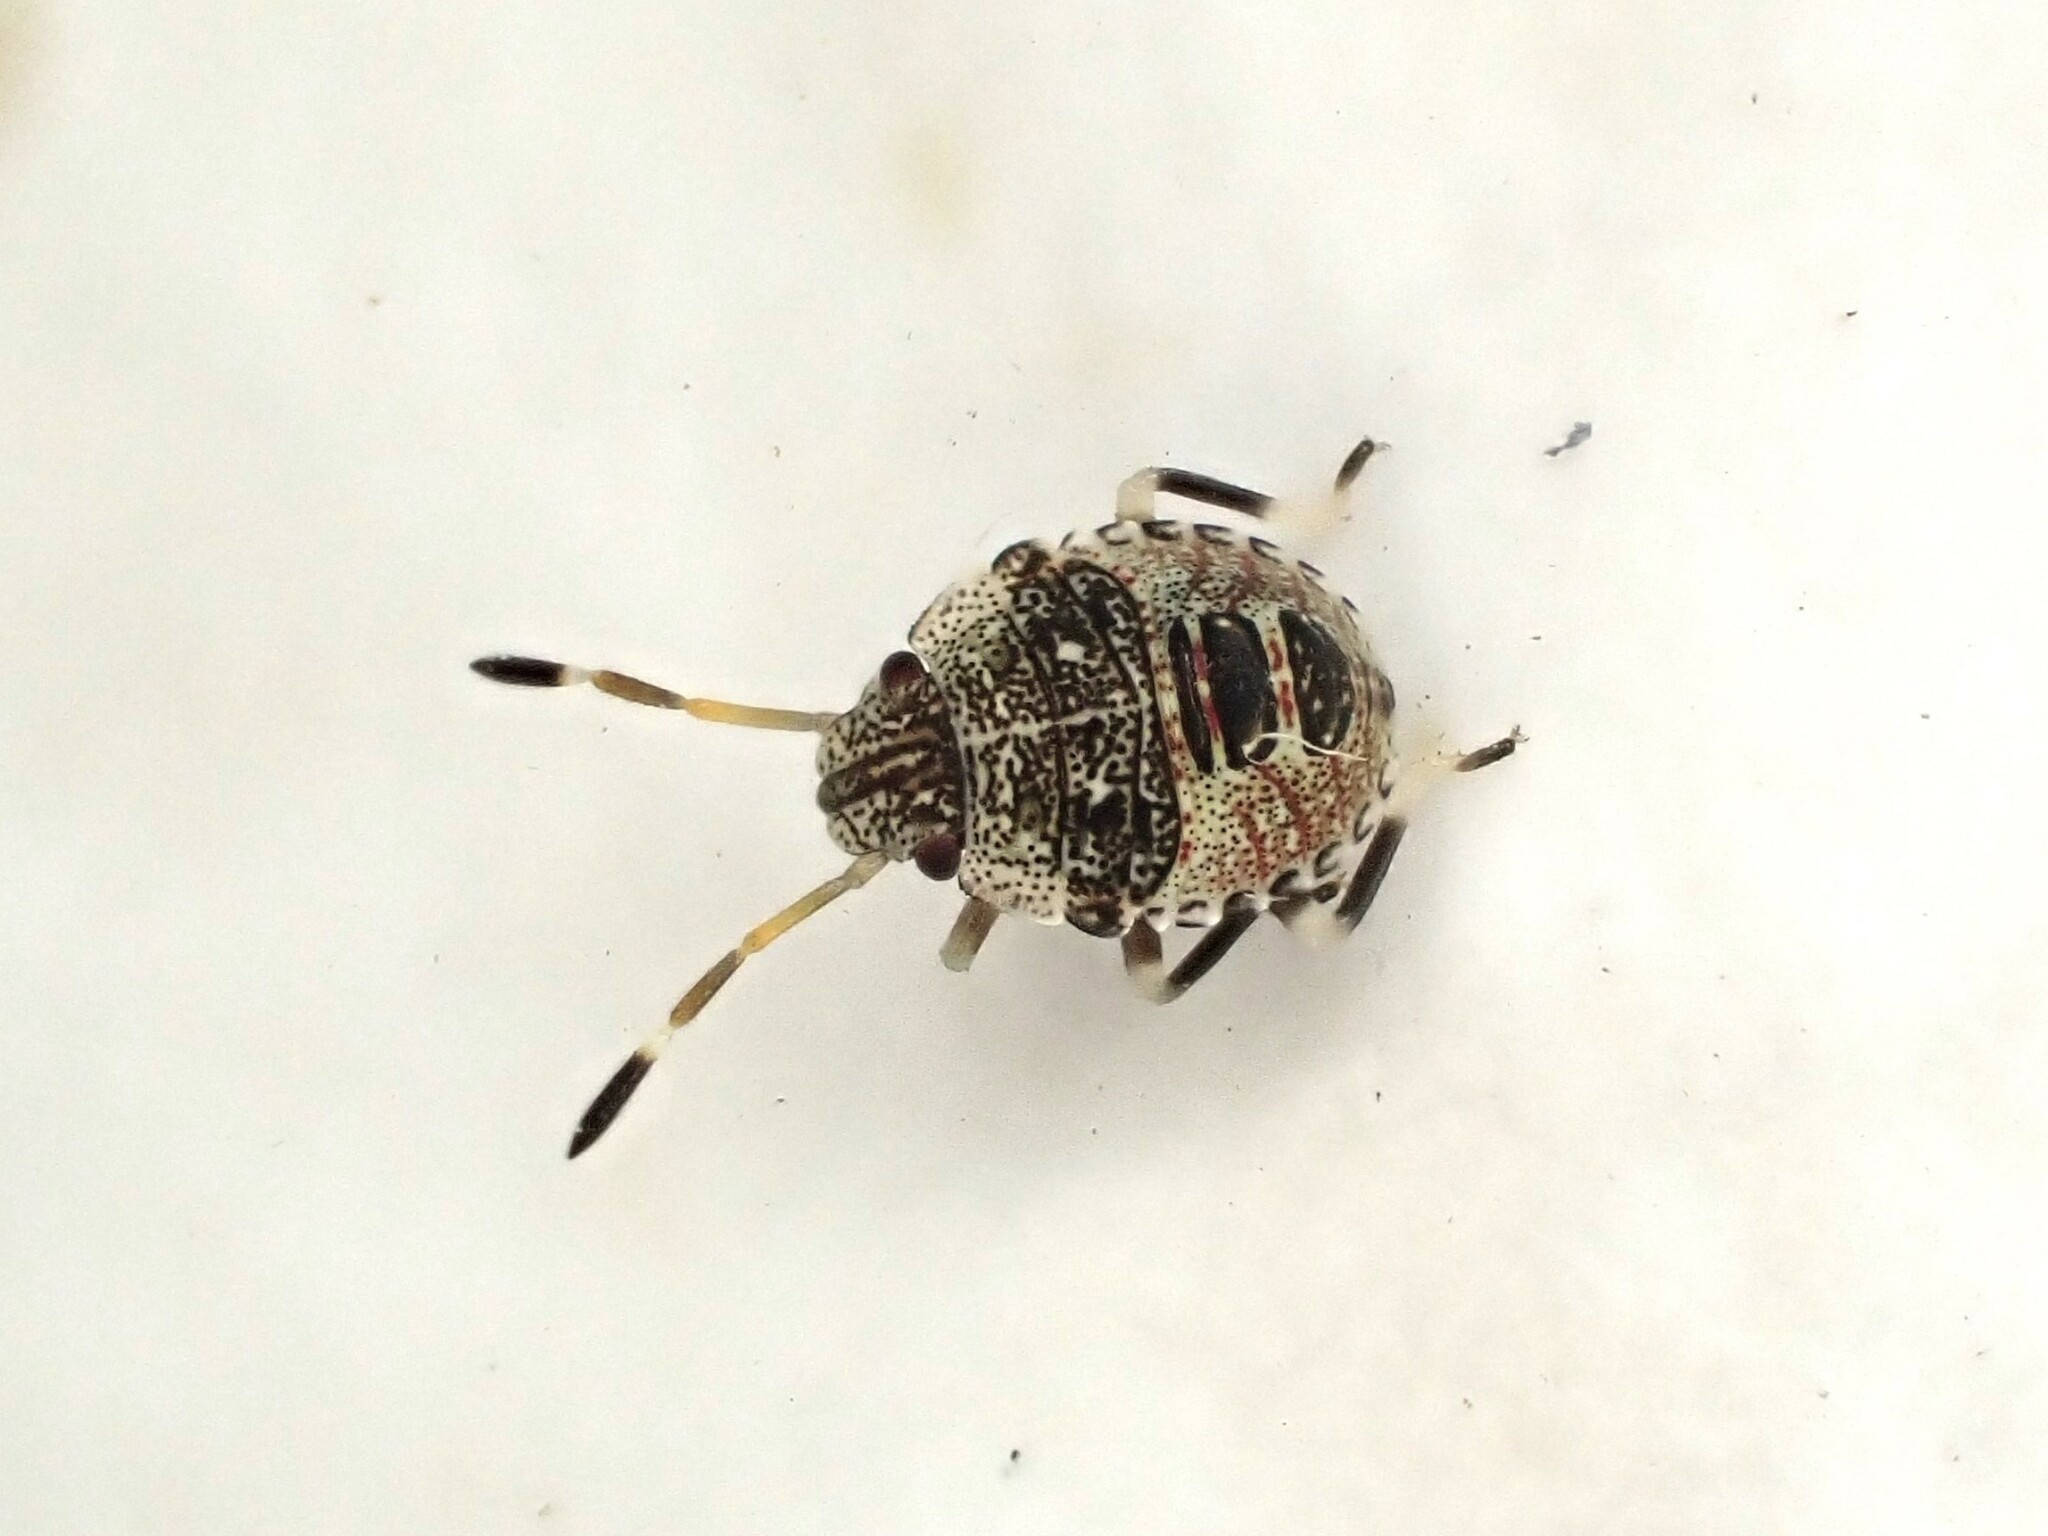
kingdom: Animalia
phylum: Arthropoda
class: Insecta
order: Hemiptera
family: Pentatomidae
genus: Cuspicona
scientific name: Cuspicona simplex
